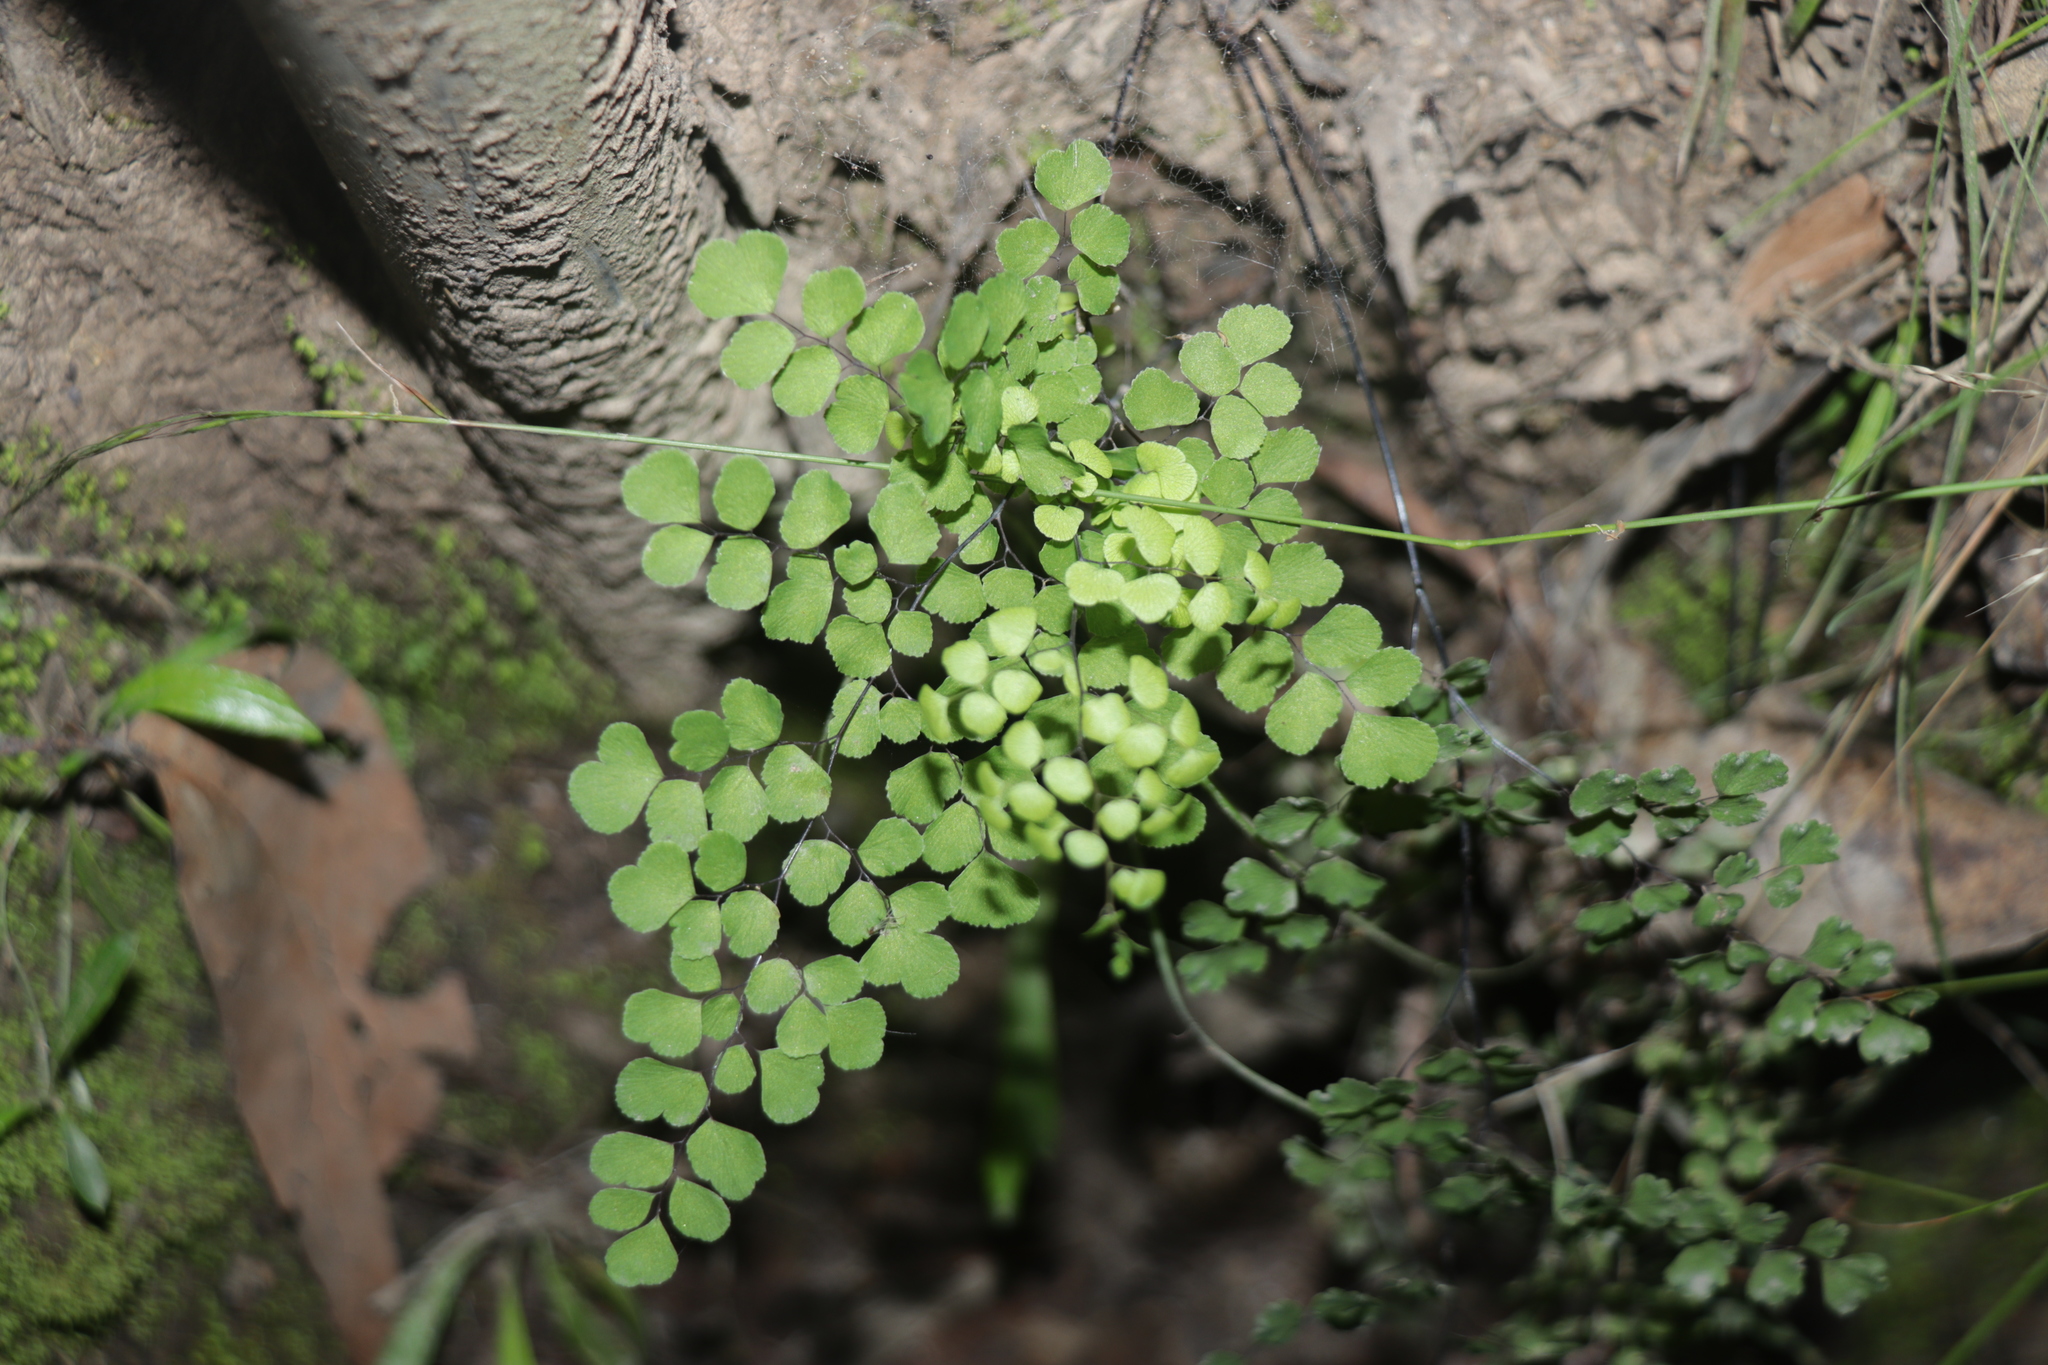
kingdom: Plantae
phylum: Tracheophyta
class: Polypodiopsida
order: Polypodiales
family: Pteridaceae
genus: Adiantum
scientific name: Adiantum aethiopicum
